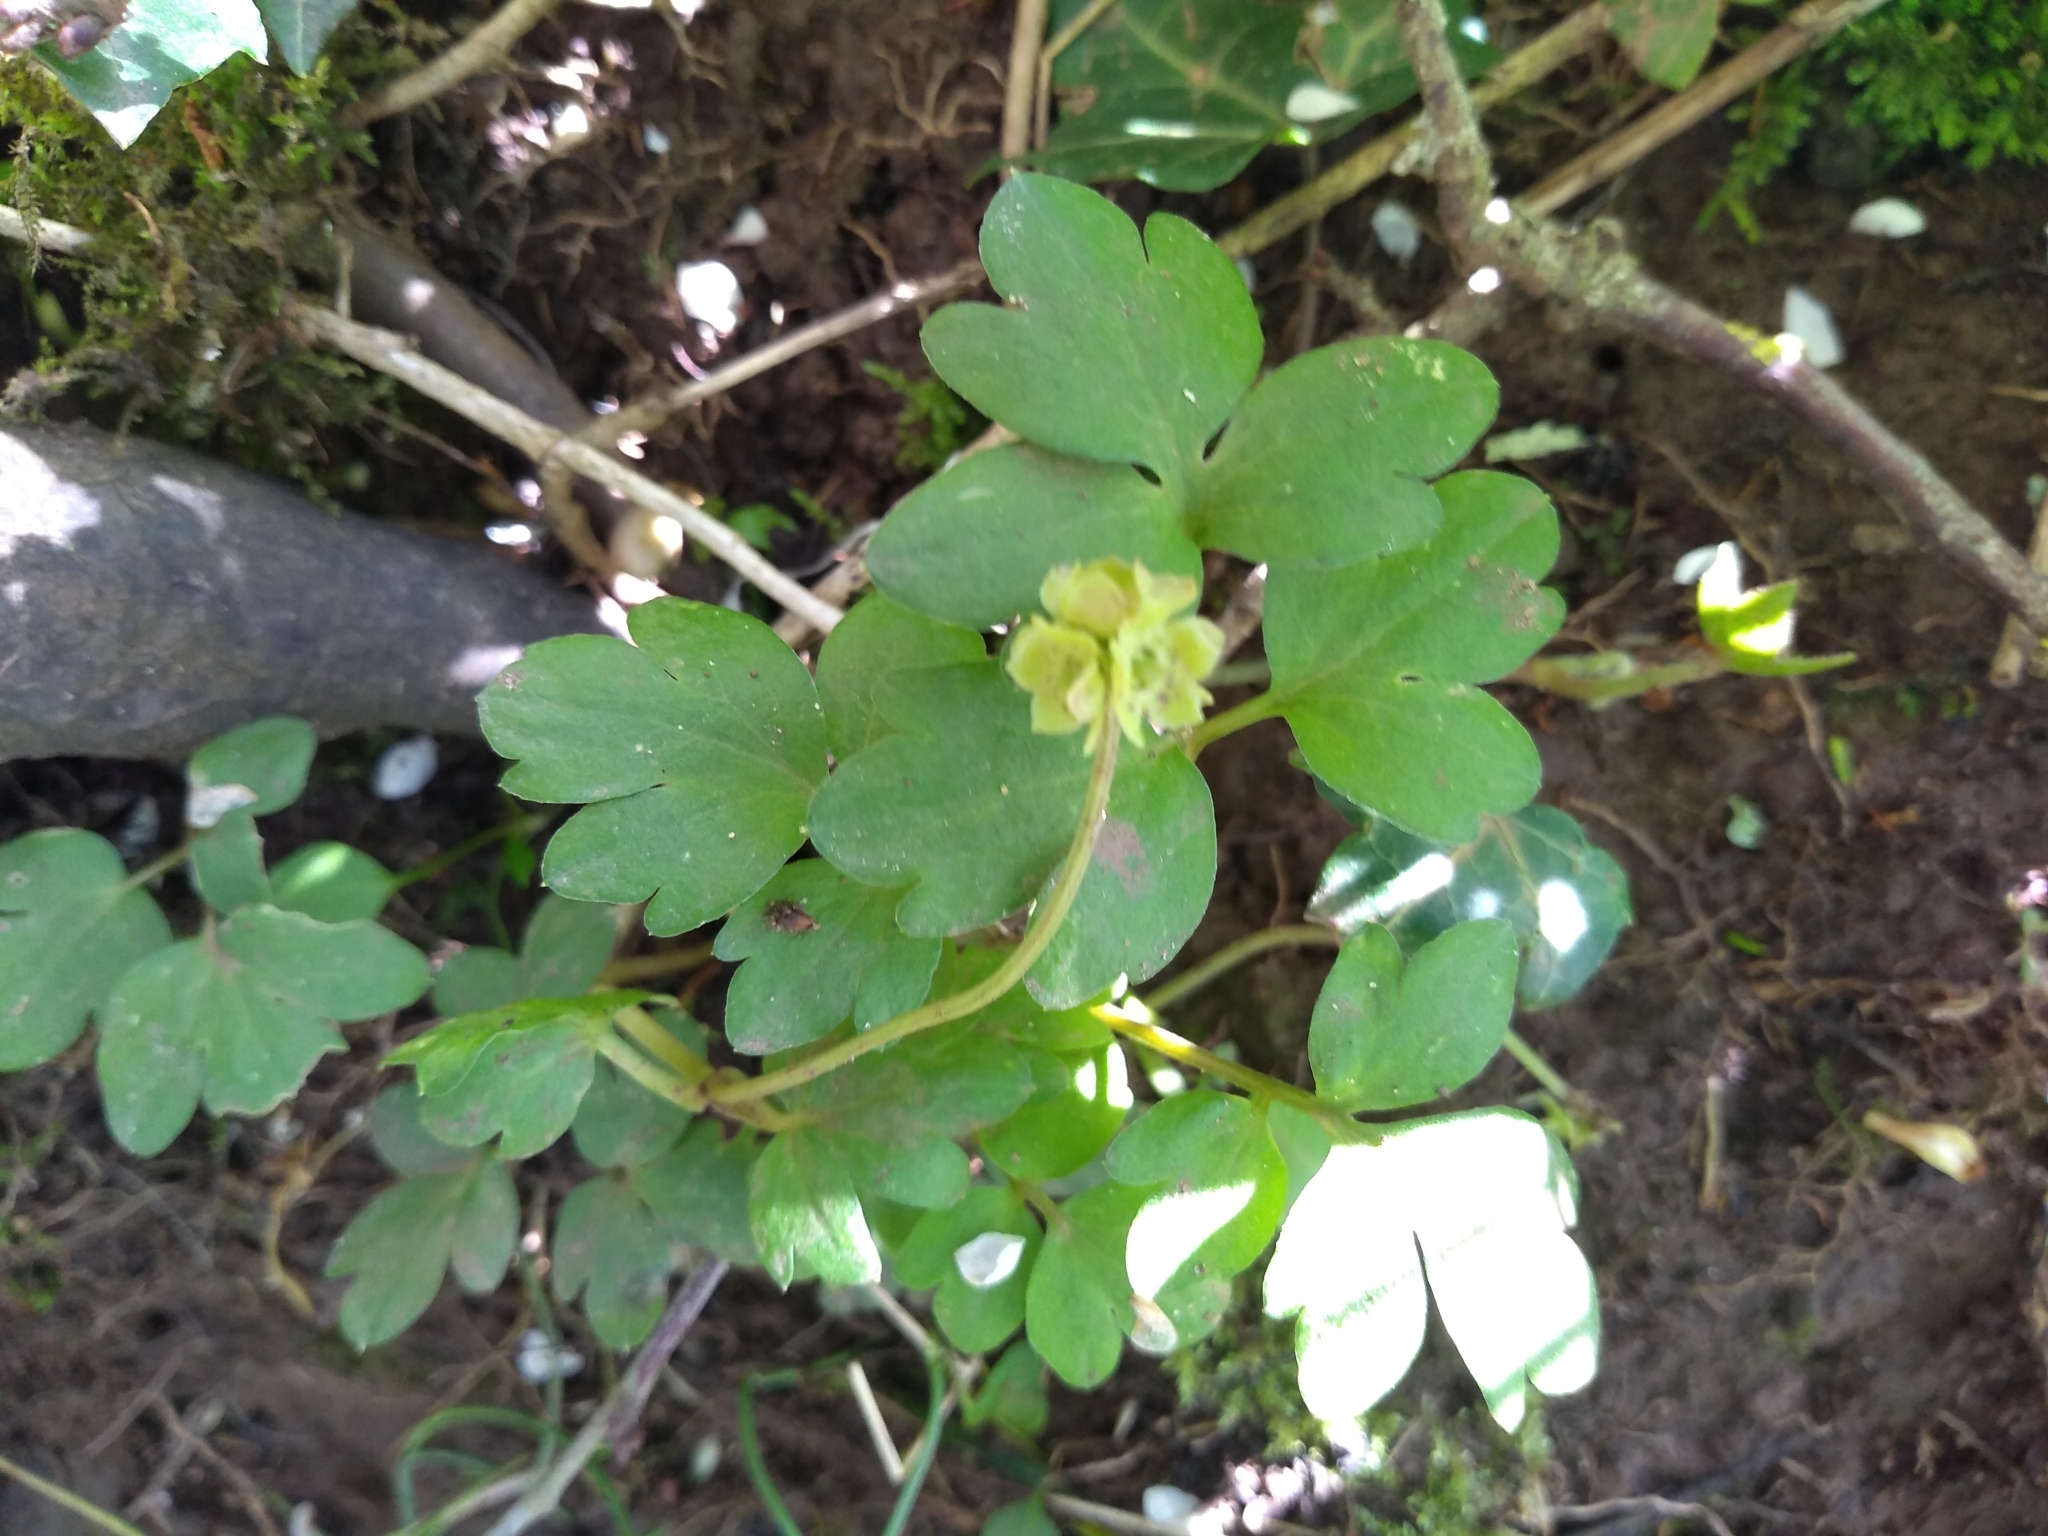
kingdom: Plantae
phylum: Tracheophyta
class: Magnoliopsida
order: Dipsacales
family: Viburnaceae
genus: Adoxa
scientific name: Adoxa moschatellina
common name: Moschatel
